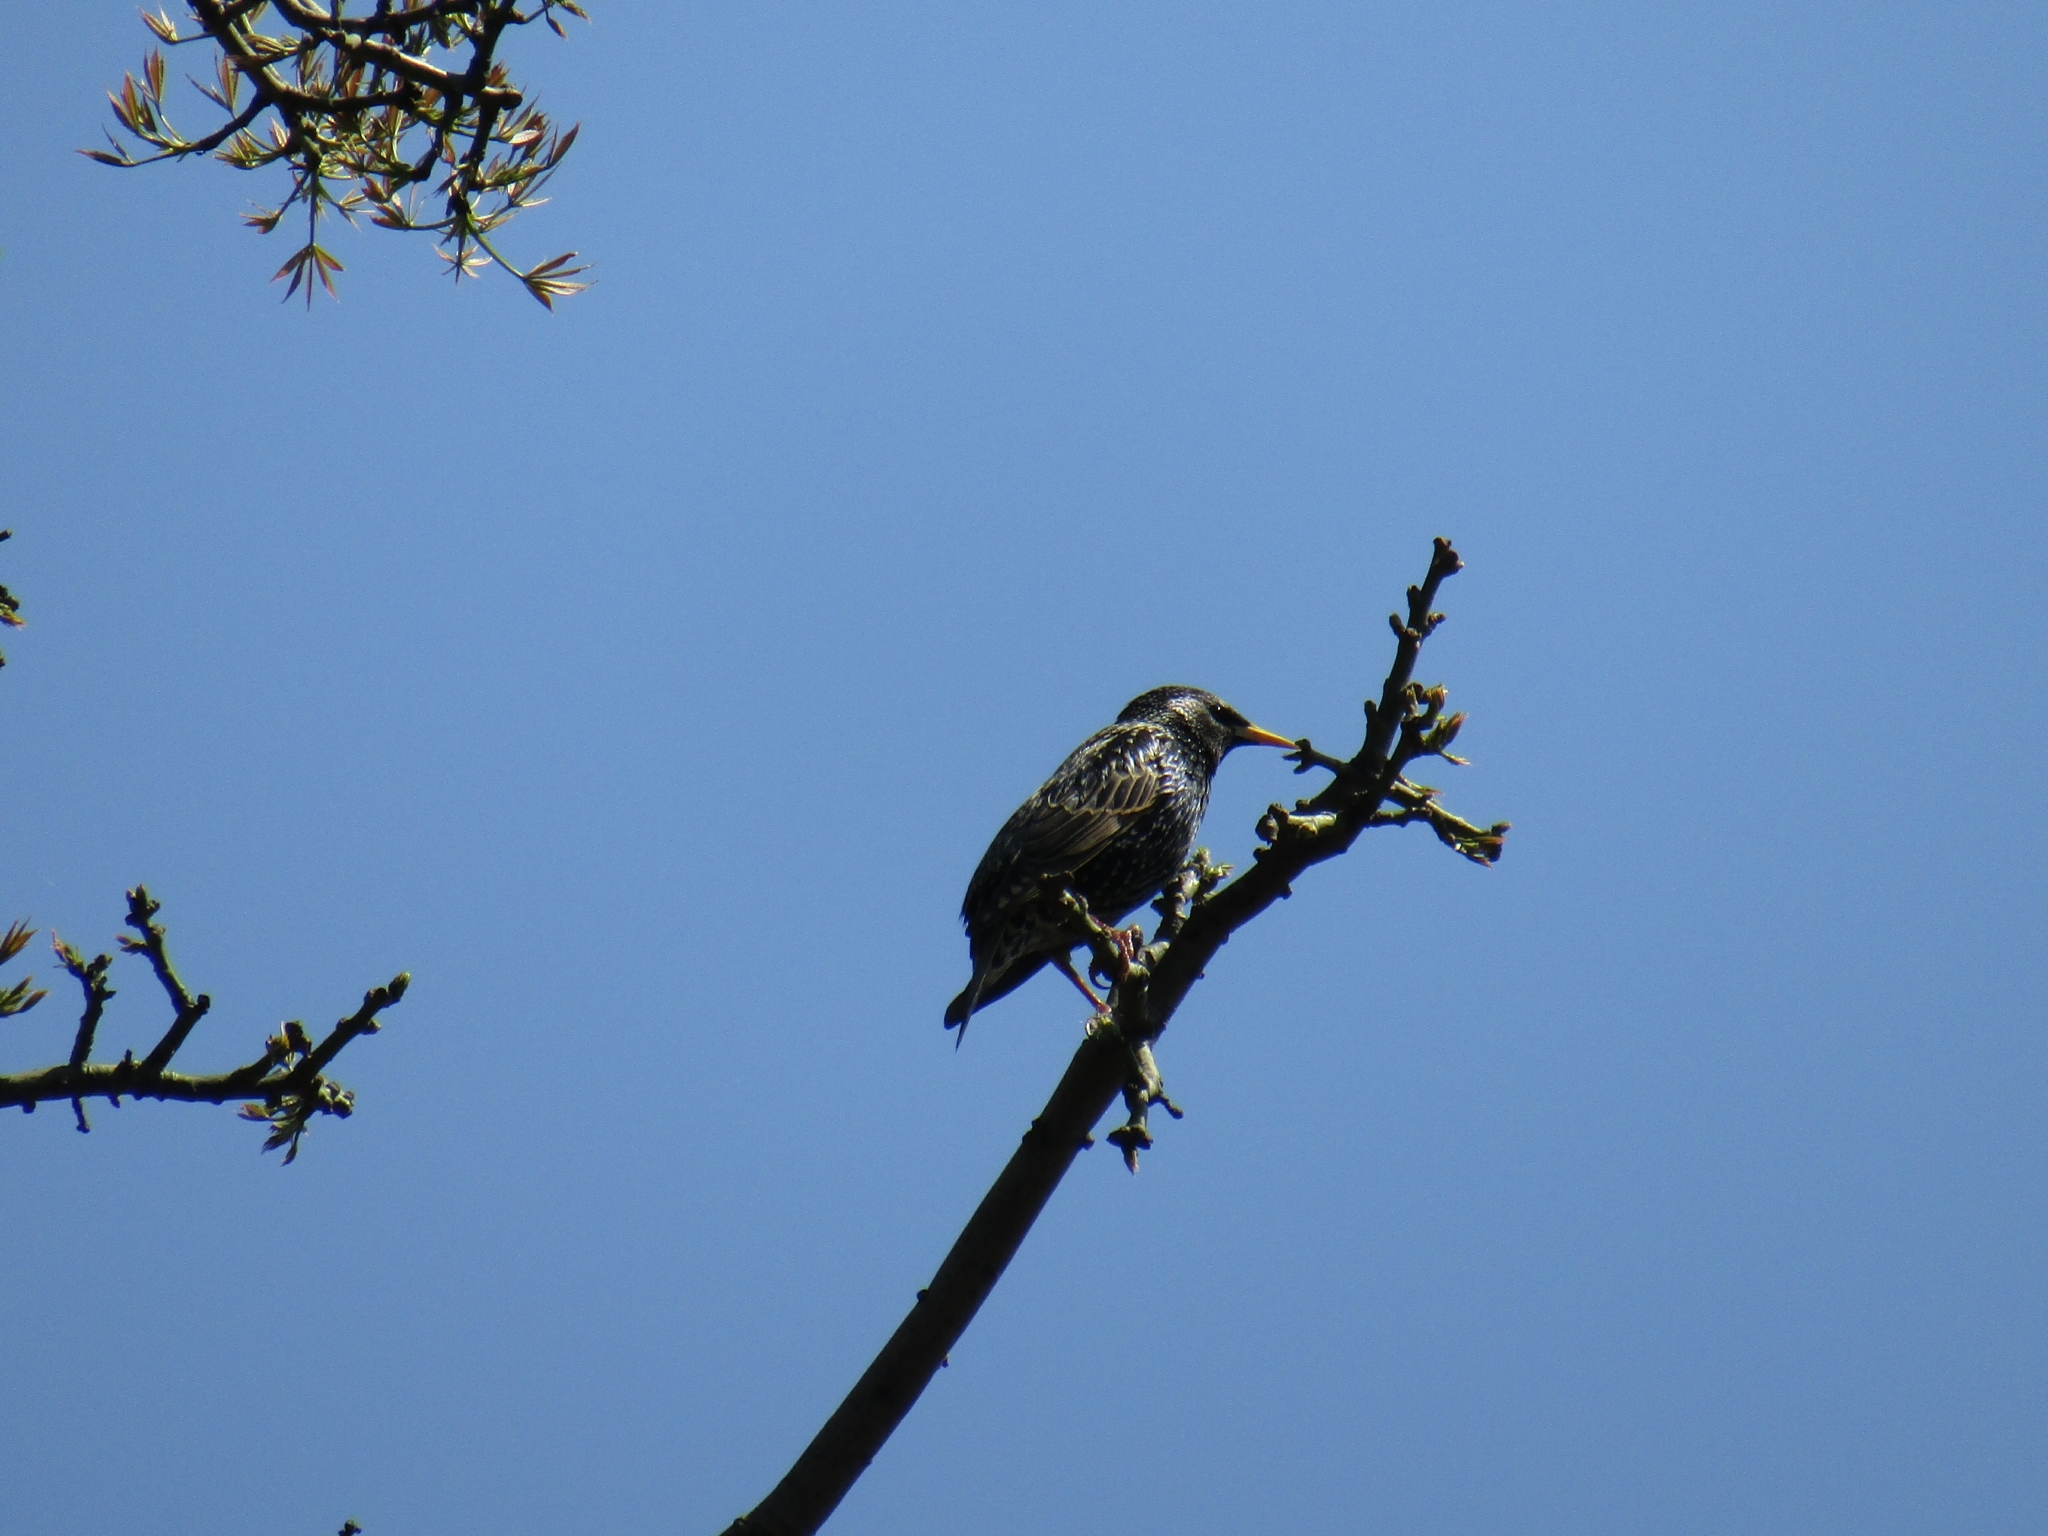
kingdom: Animalia
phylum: Chordata
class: Aves
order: Passeriformes
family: Sturnidae
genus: Sturnus
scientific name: Sturnus vulgaris
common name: Common starling
